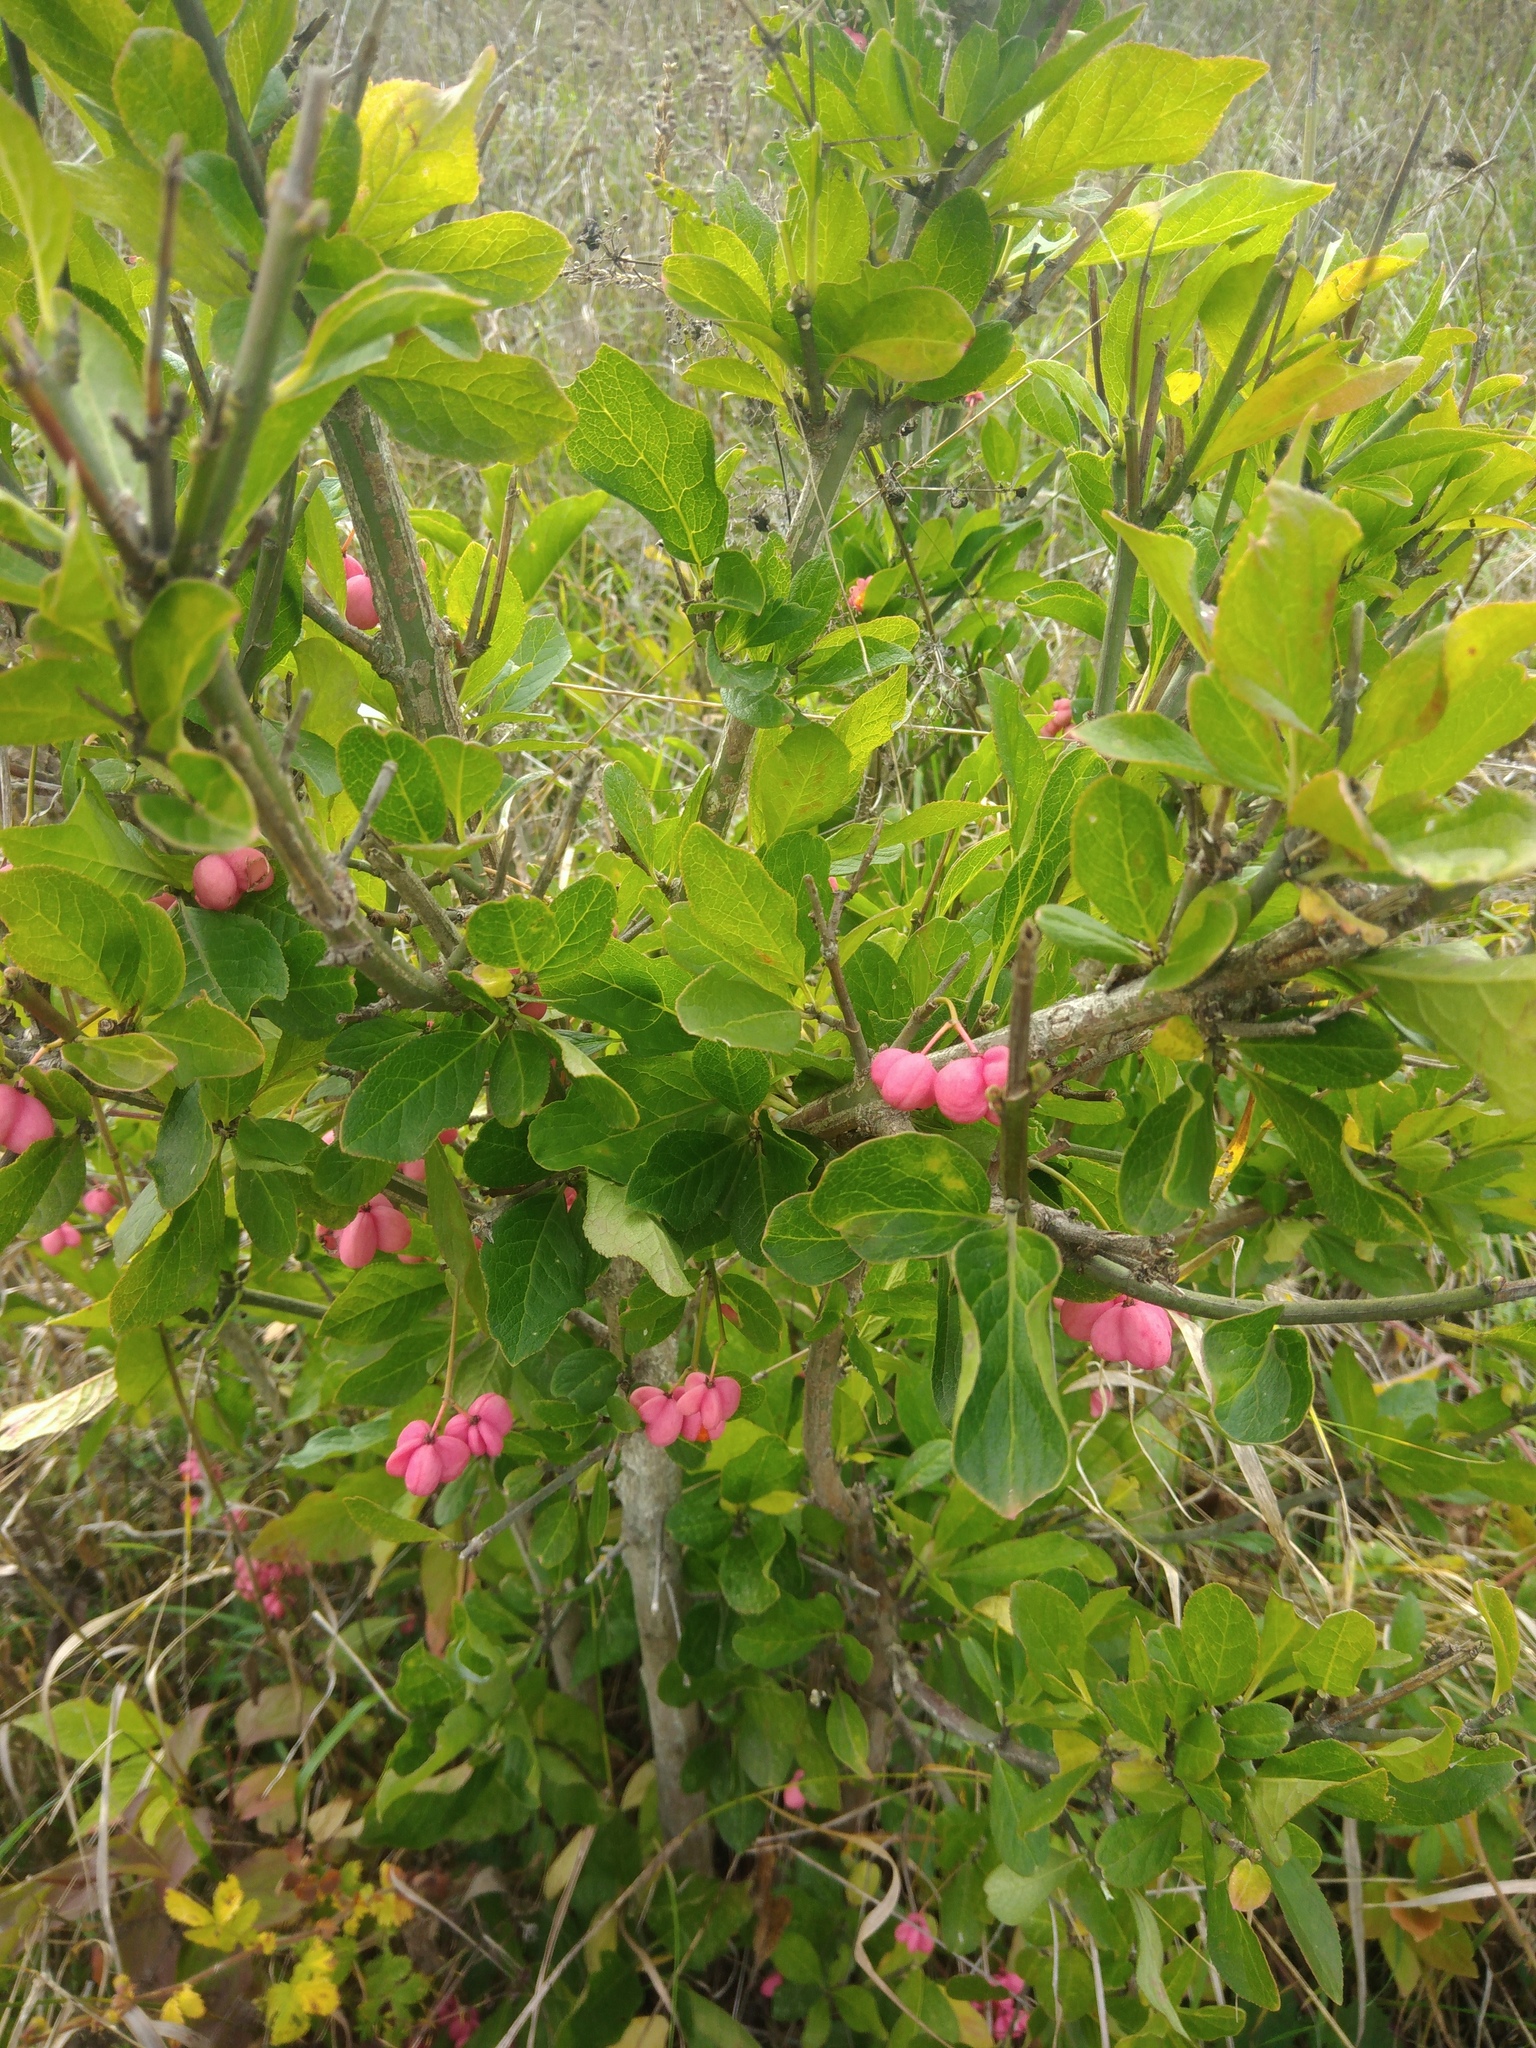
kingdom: Plantae
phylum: Tracheophyta
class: Magnoliopsida
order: Celastrales
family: Celastraceae
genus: Euonymus
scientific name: Euonymus europaeus
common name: Spindle
